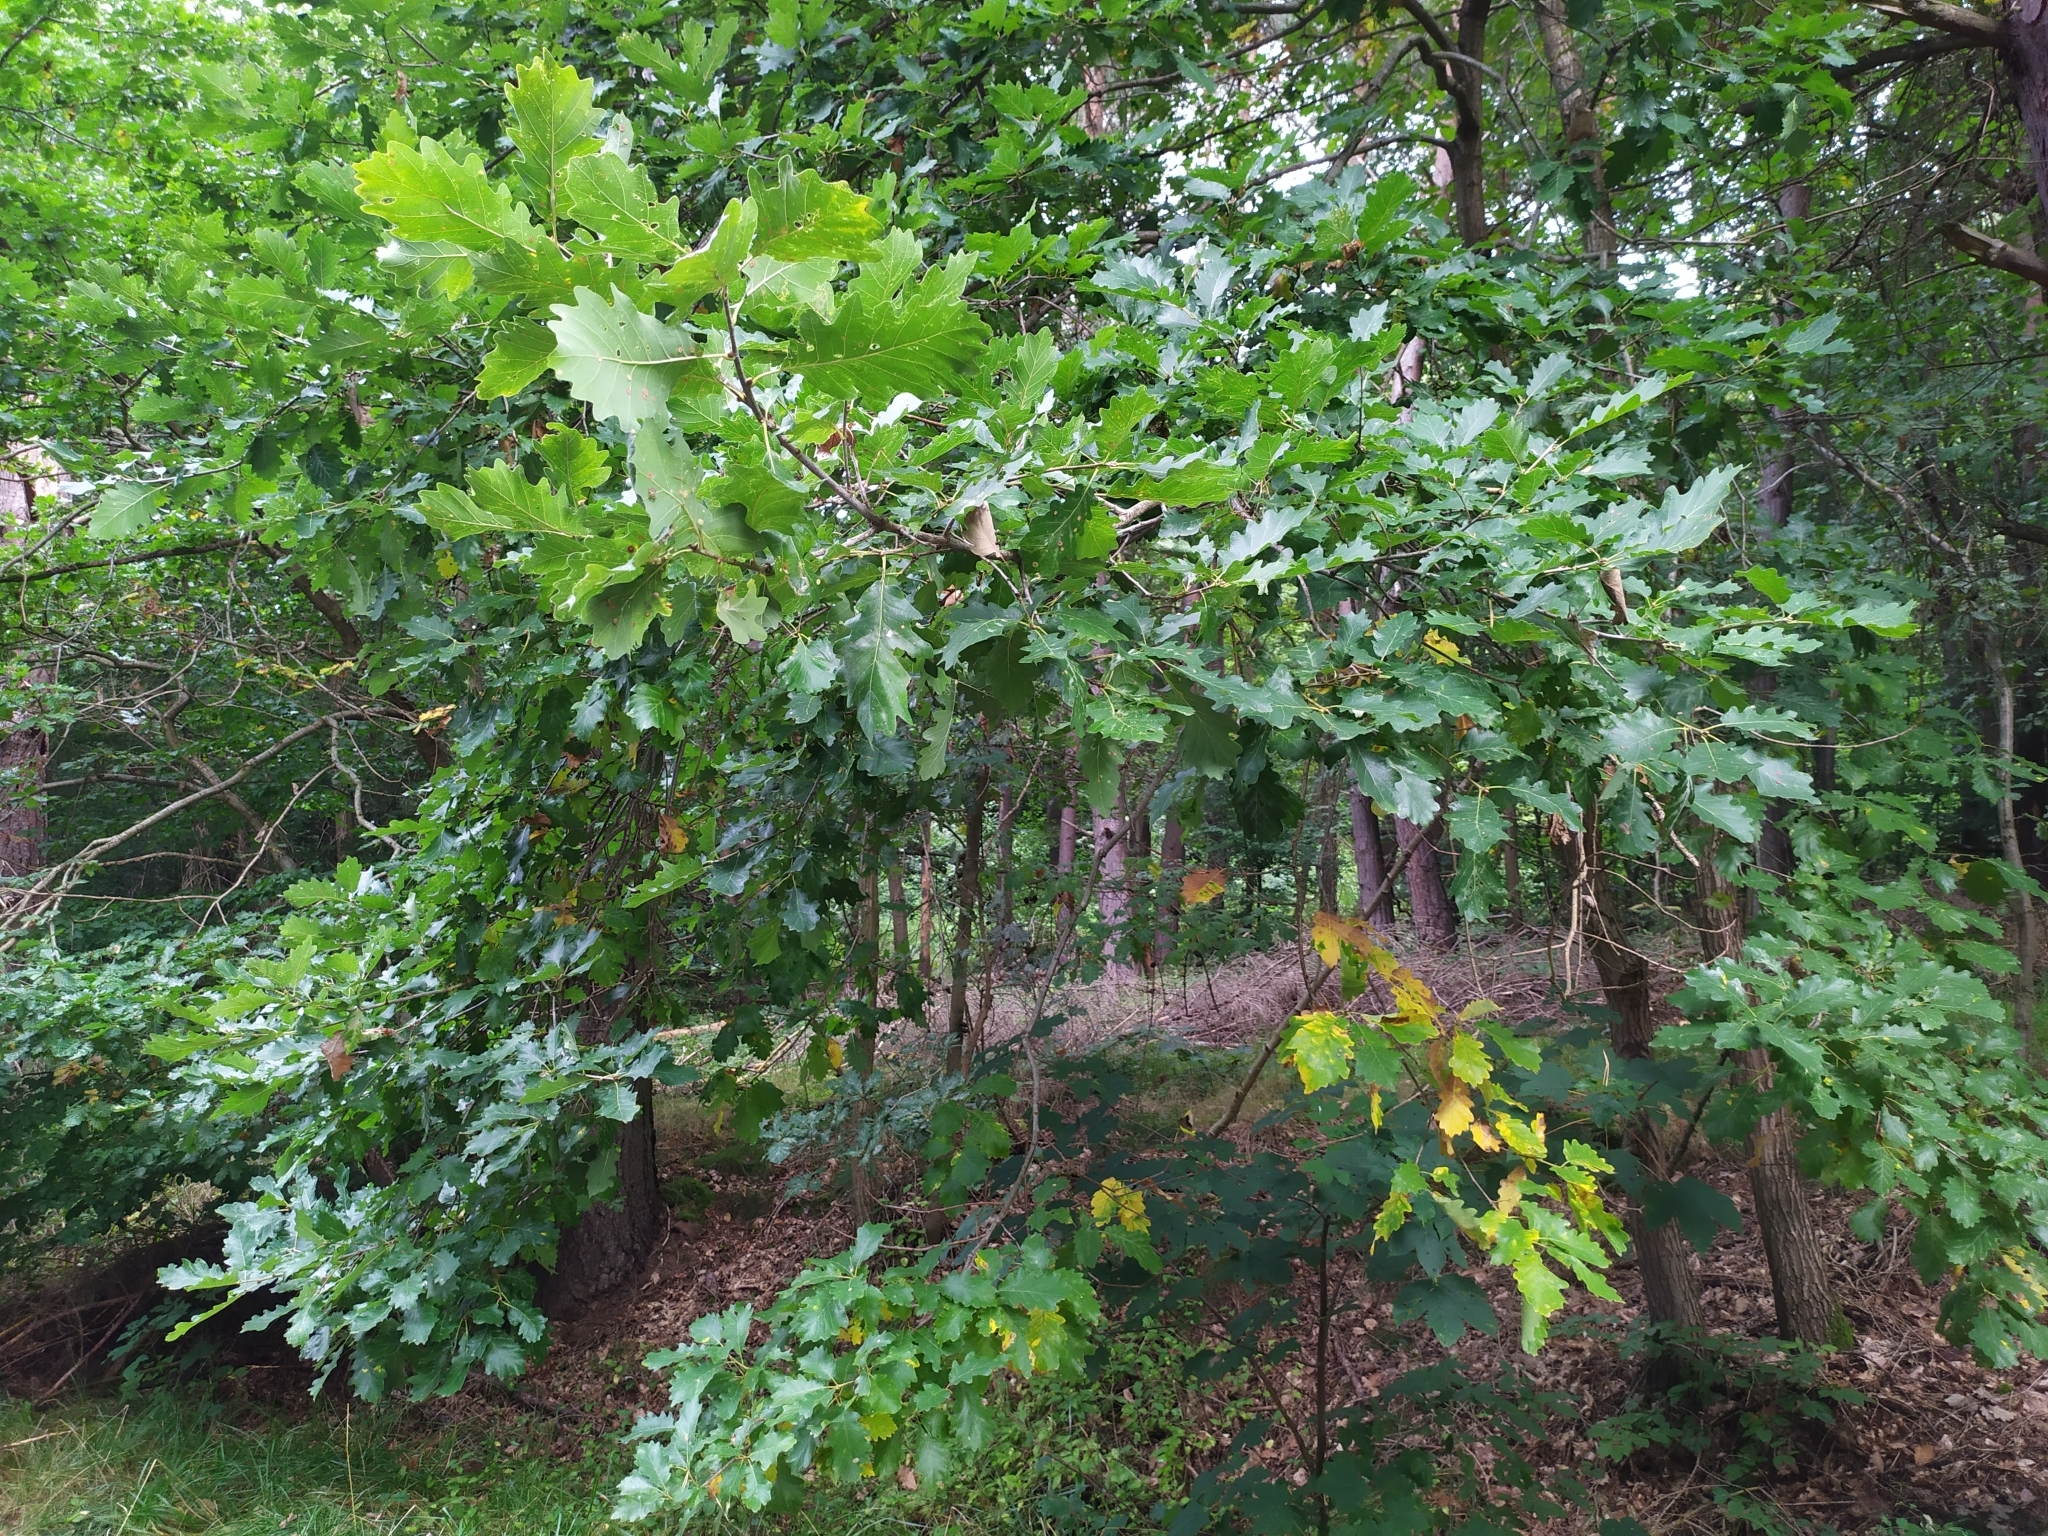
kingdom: Plantae
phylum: Tracheophyta
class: Magnoliopsida
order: Fagales
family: Fagaceae
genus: Quercus
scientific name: Quercus petraea
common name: Sessile oak
